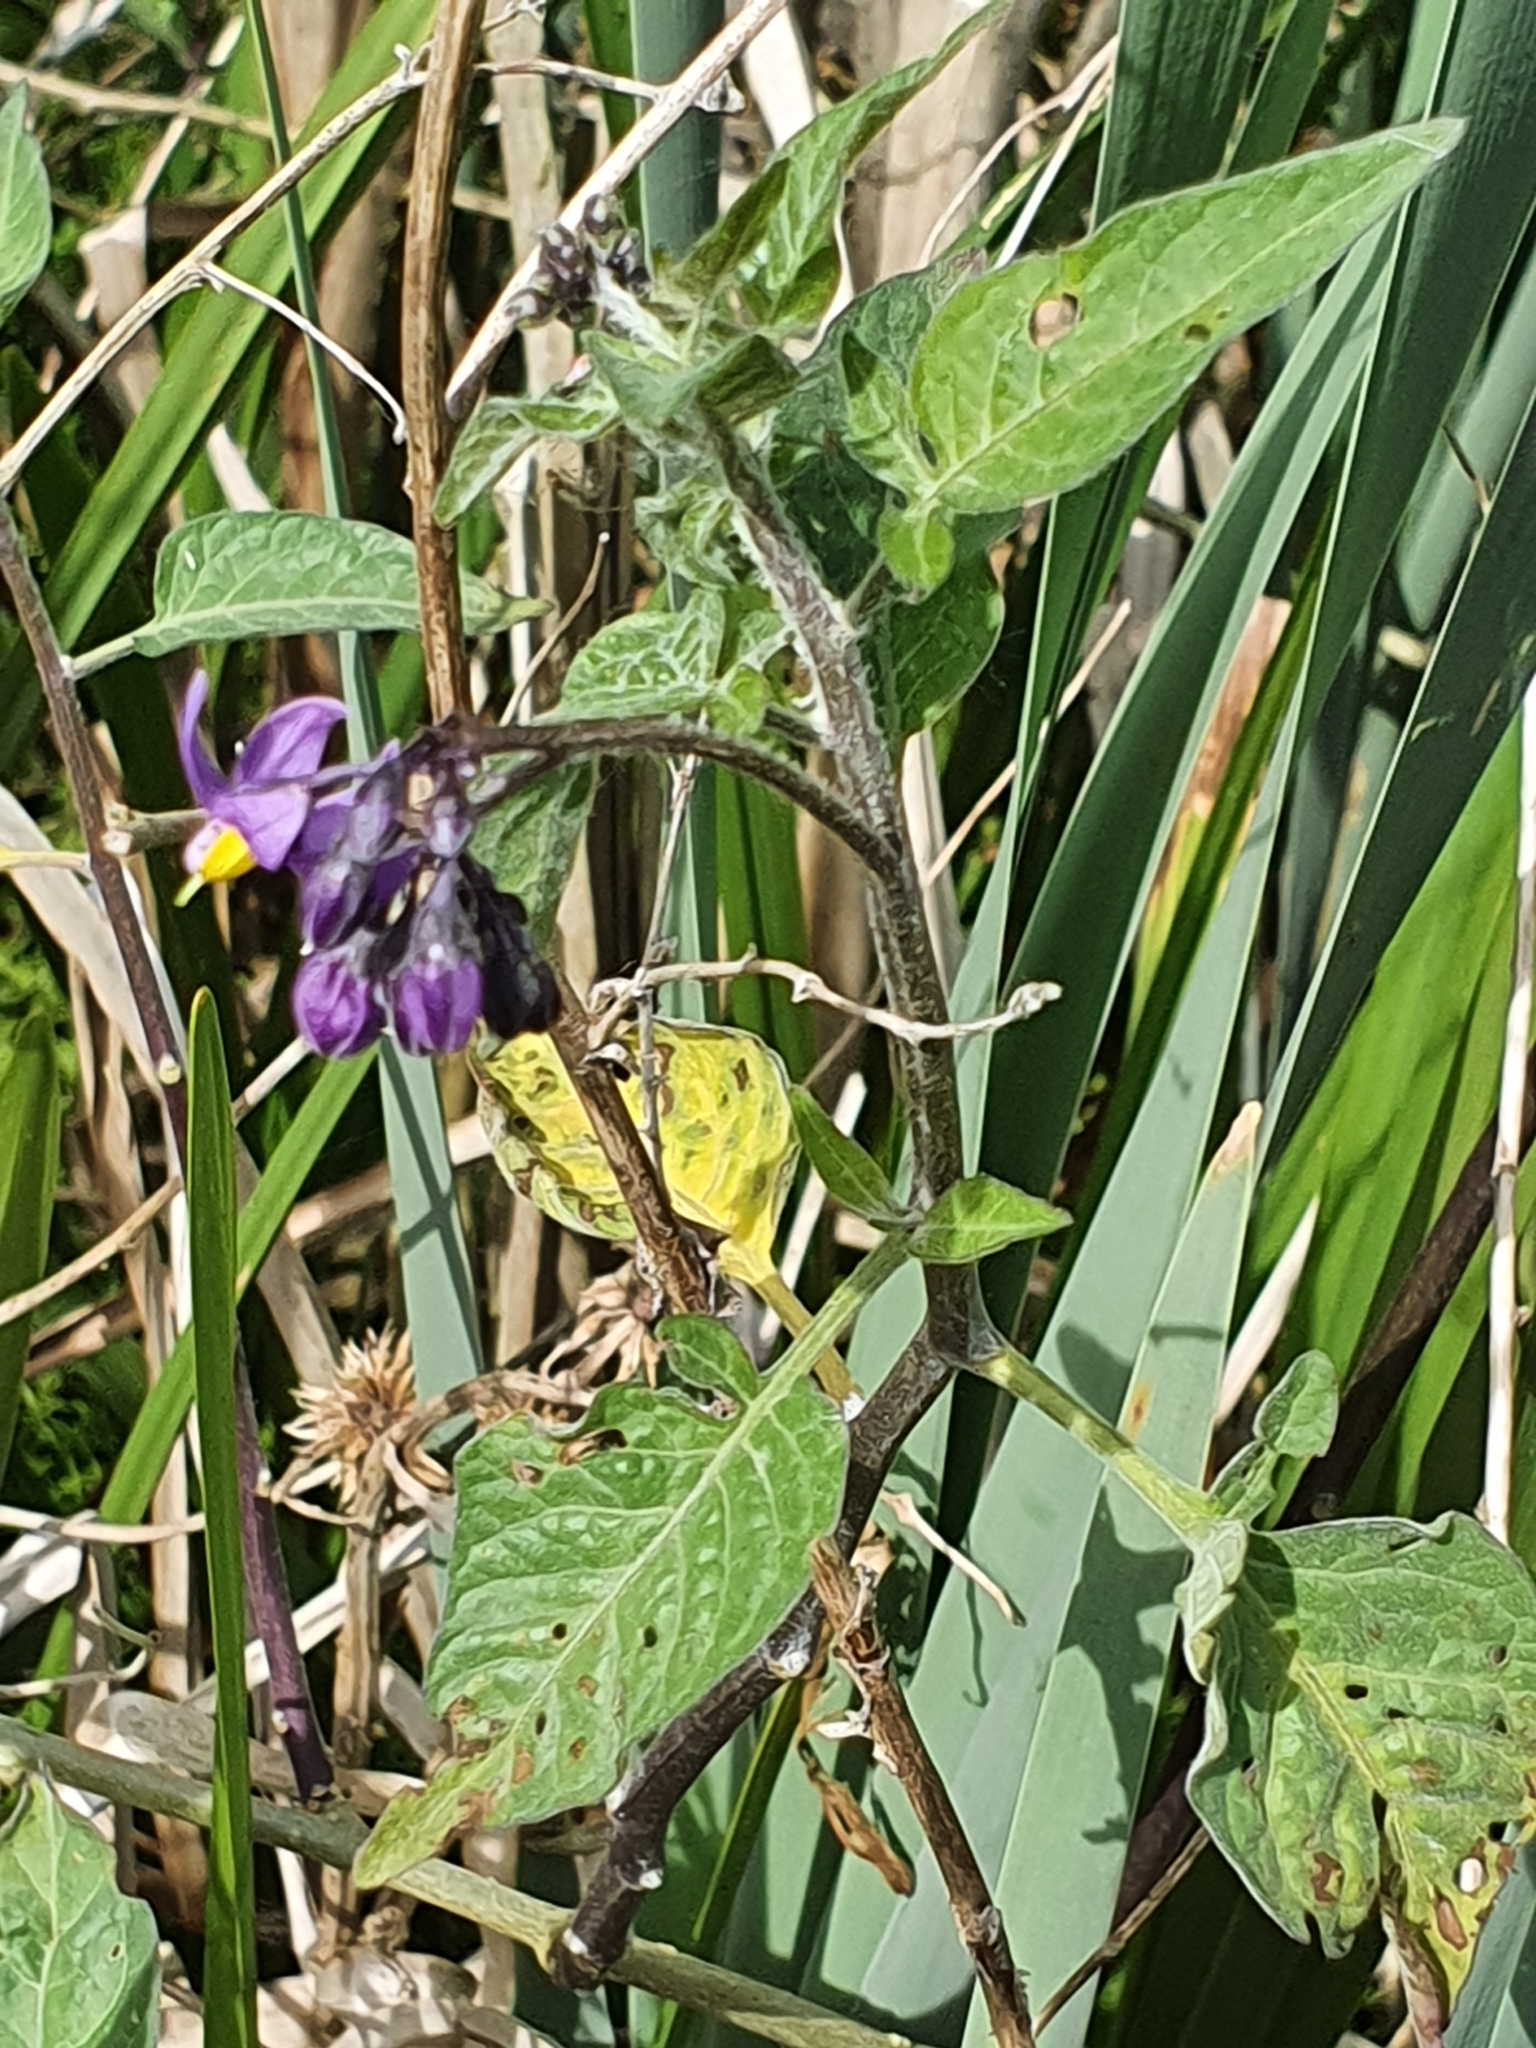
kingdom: Plantae
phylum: Tracheophyta
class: Magnoliopsida
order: Solanales
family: Solanaceae
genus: Solanum
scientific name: Solanum dulcamara
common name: Climbing nightshade
